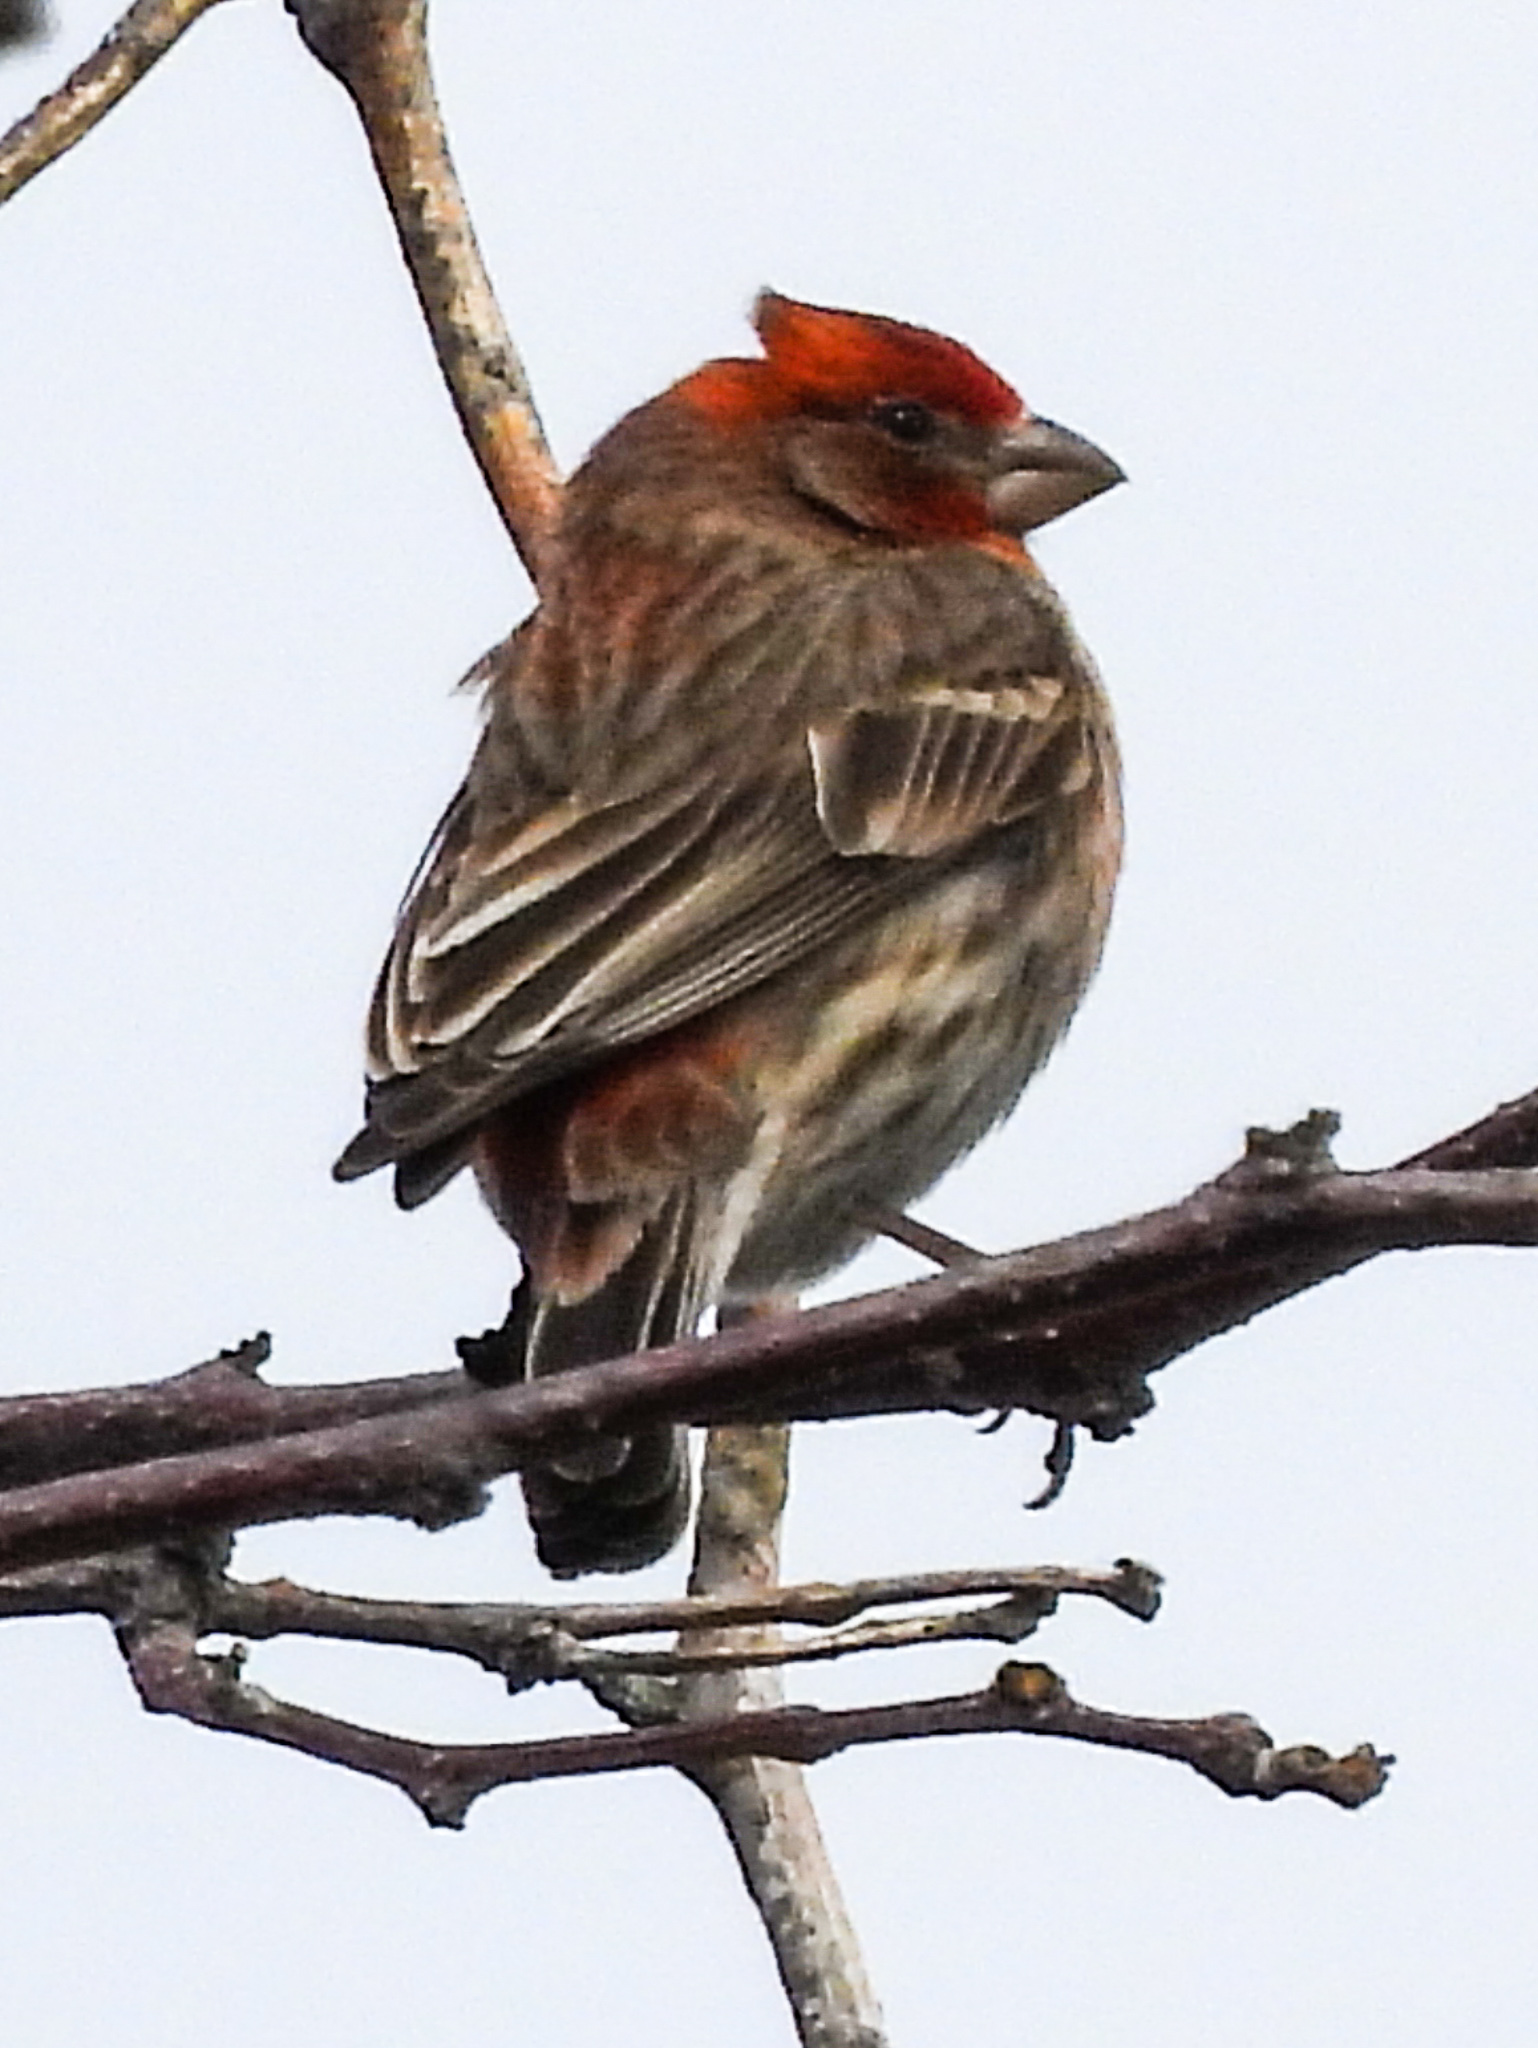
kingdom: Animalia
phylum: Chordata
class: Aves
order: Passeriformes
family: Fringillidae
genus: Haemorhous
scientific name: Haemorhous mexicanus
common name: House finch
